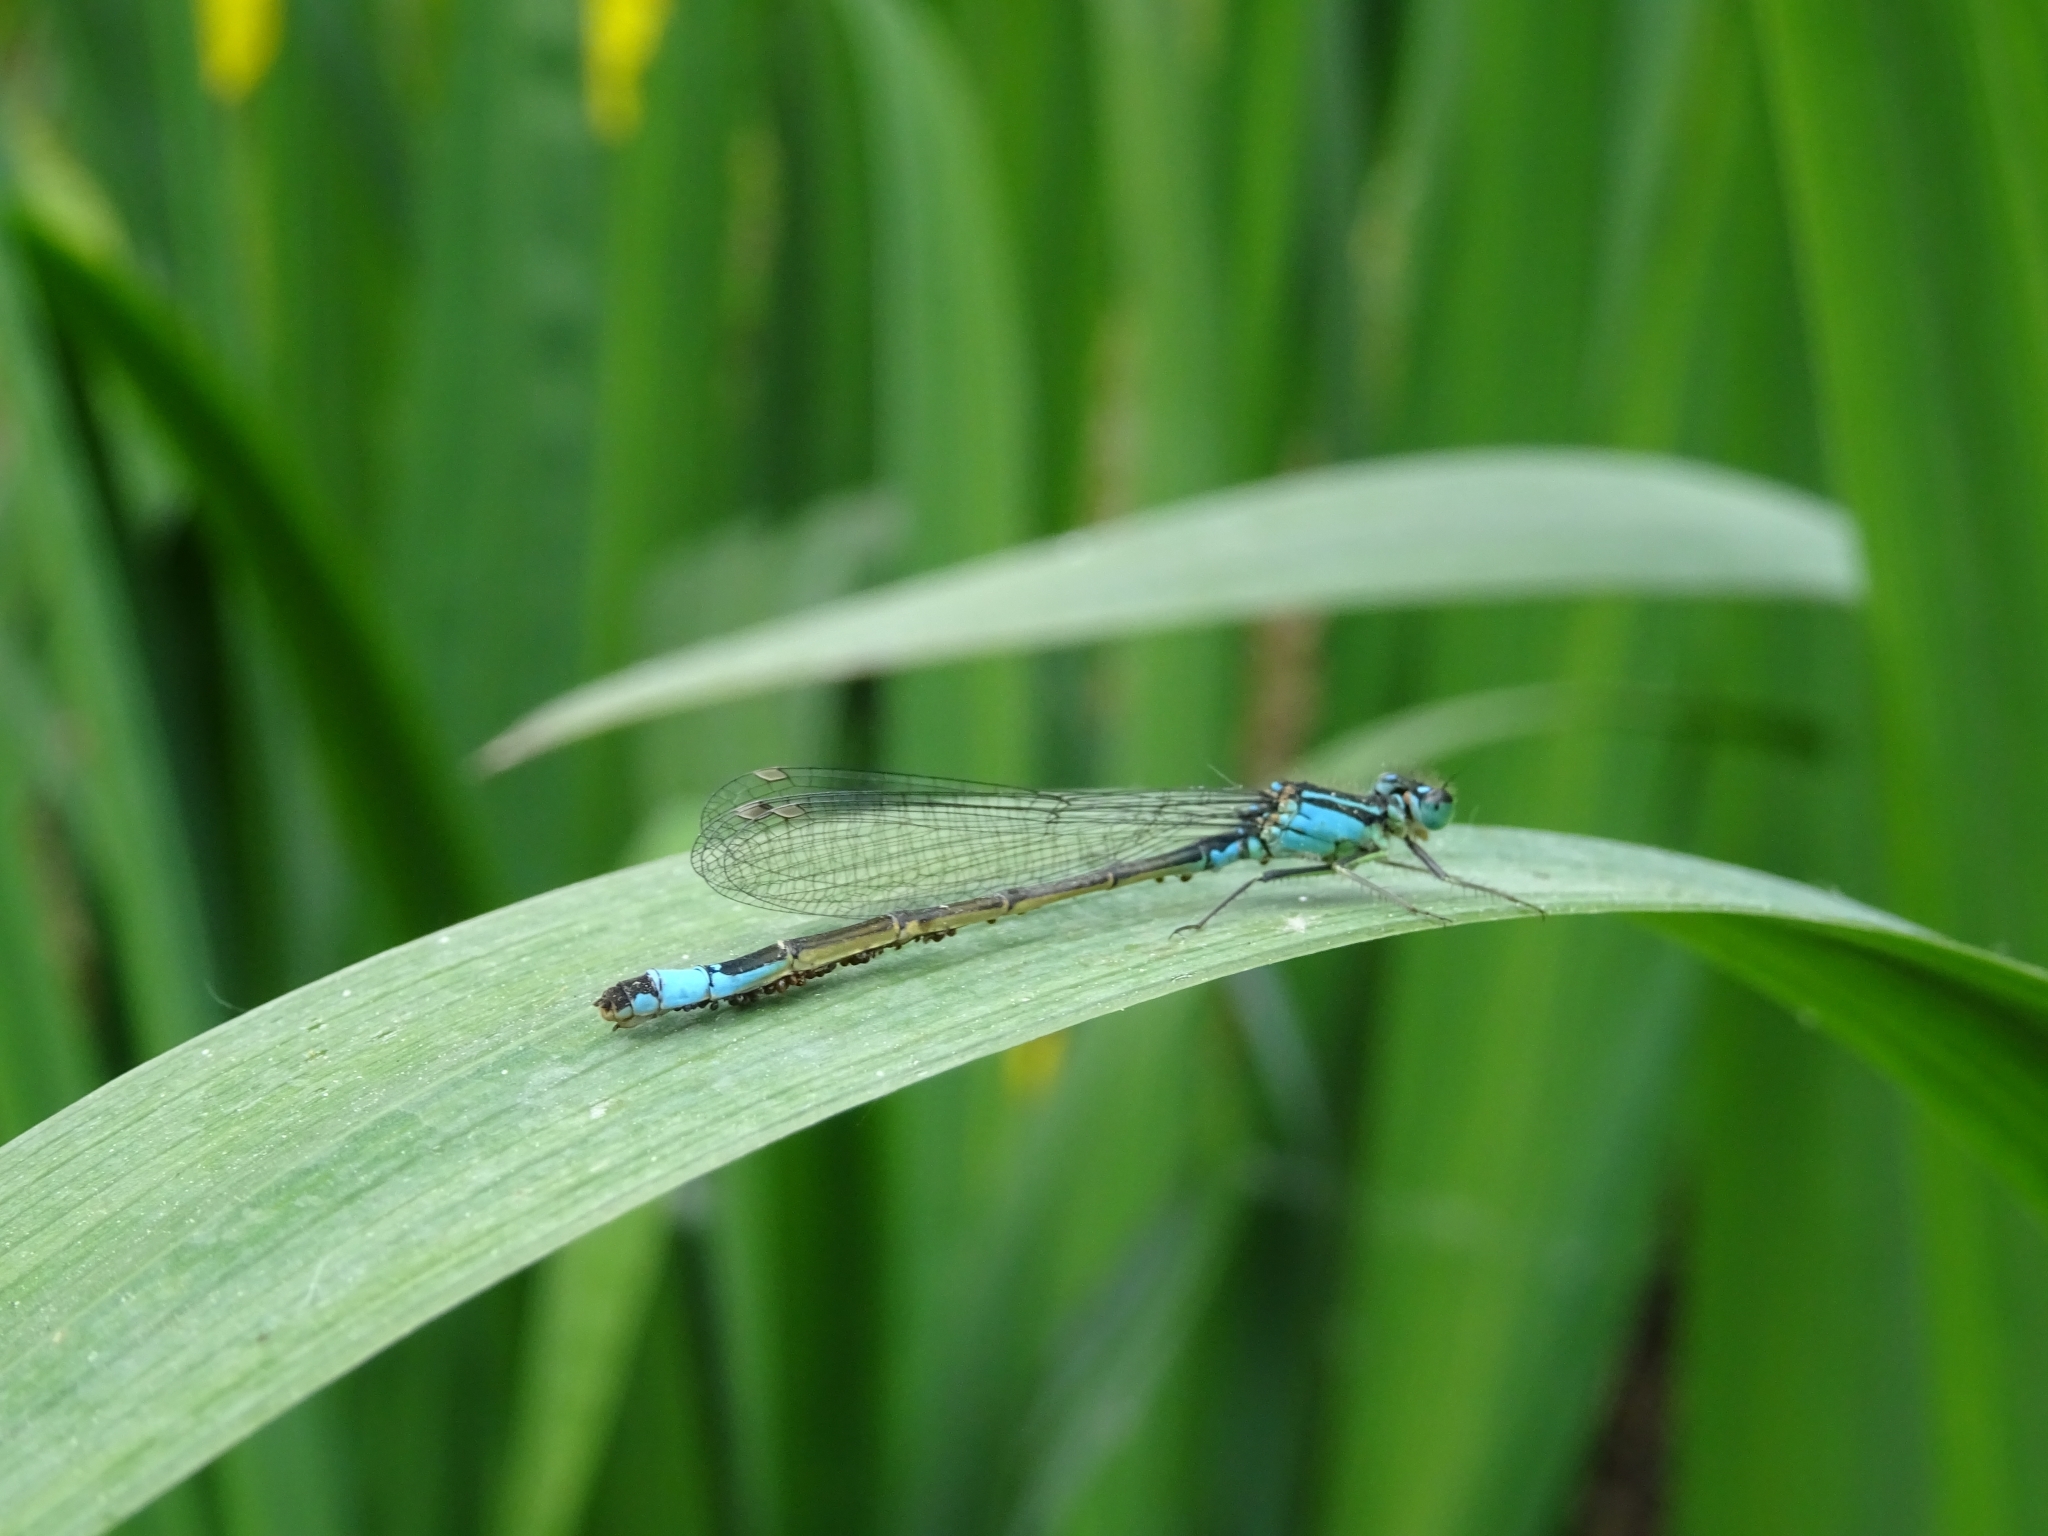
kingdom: Animalia
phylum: Arthropoda
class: Insecta
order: Odonata
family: Coenagrionidae
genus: Ischnura
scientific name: Ischnura elegans
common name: Blue-tailed damselfly
